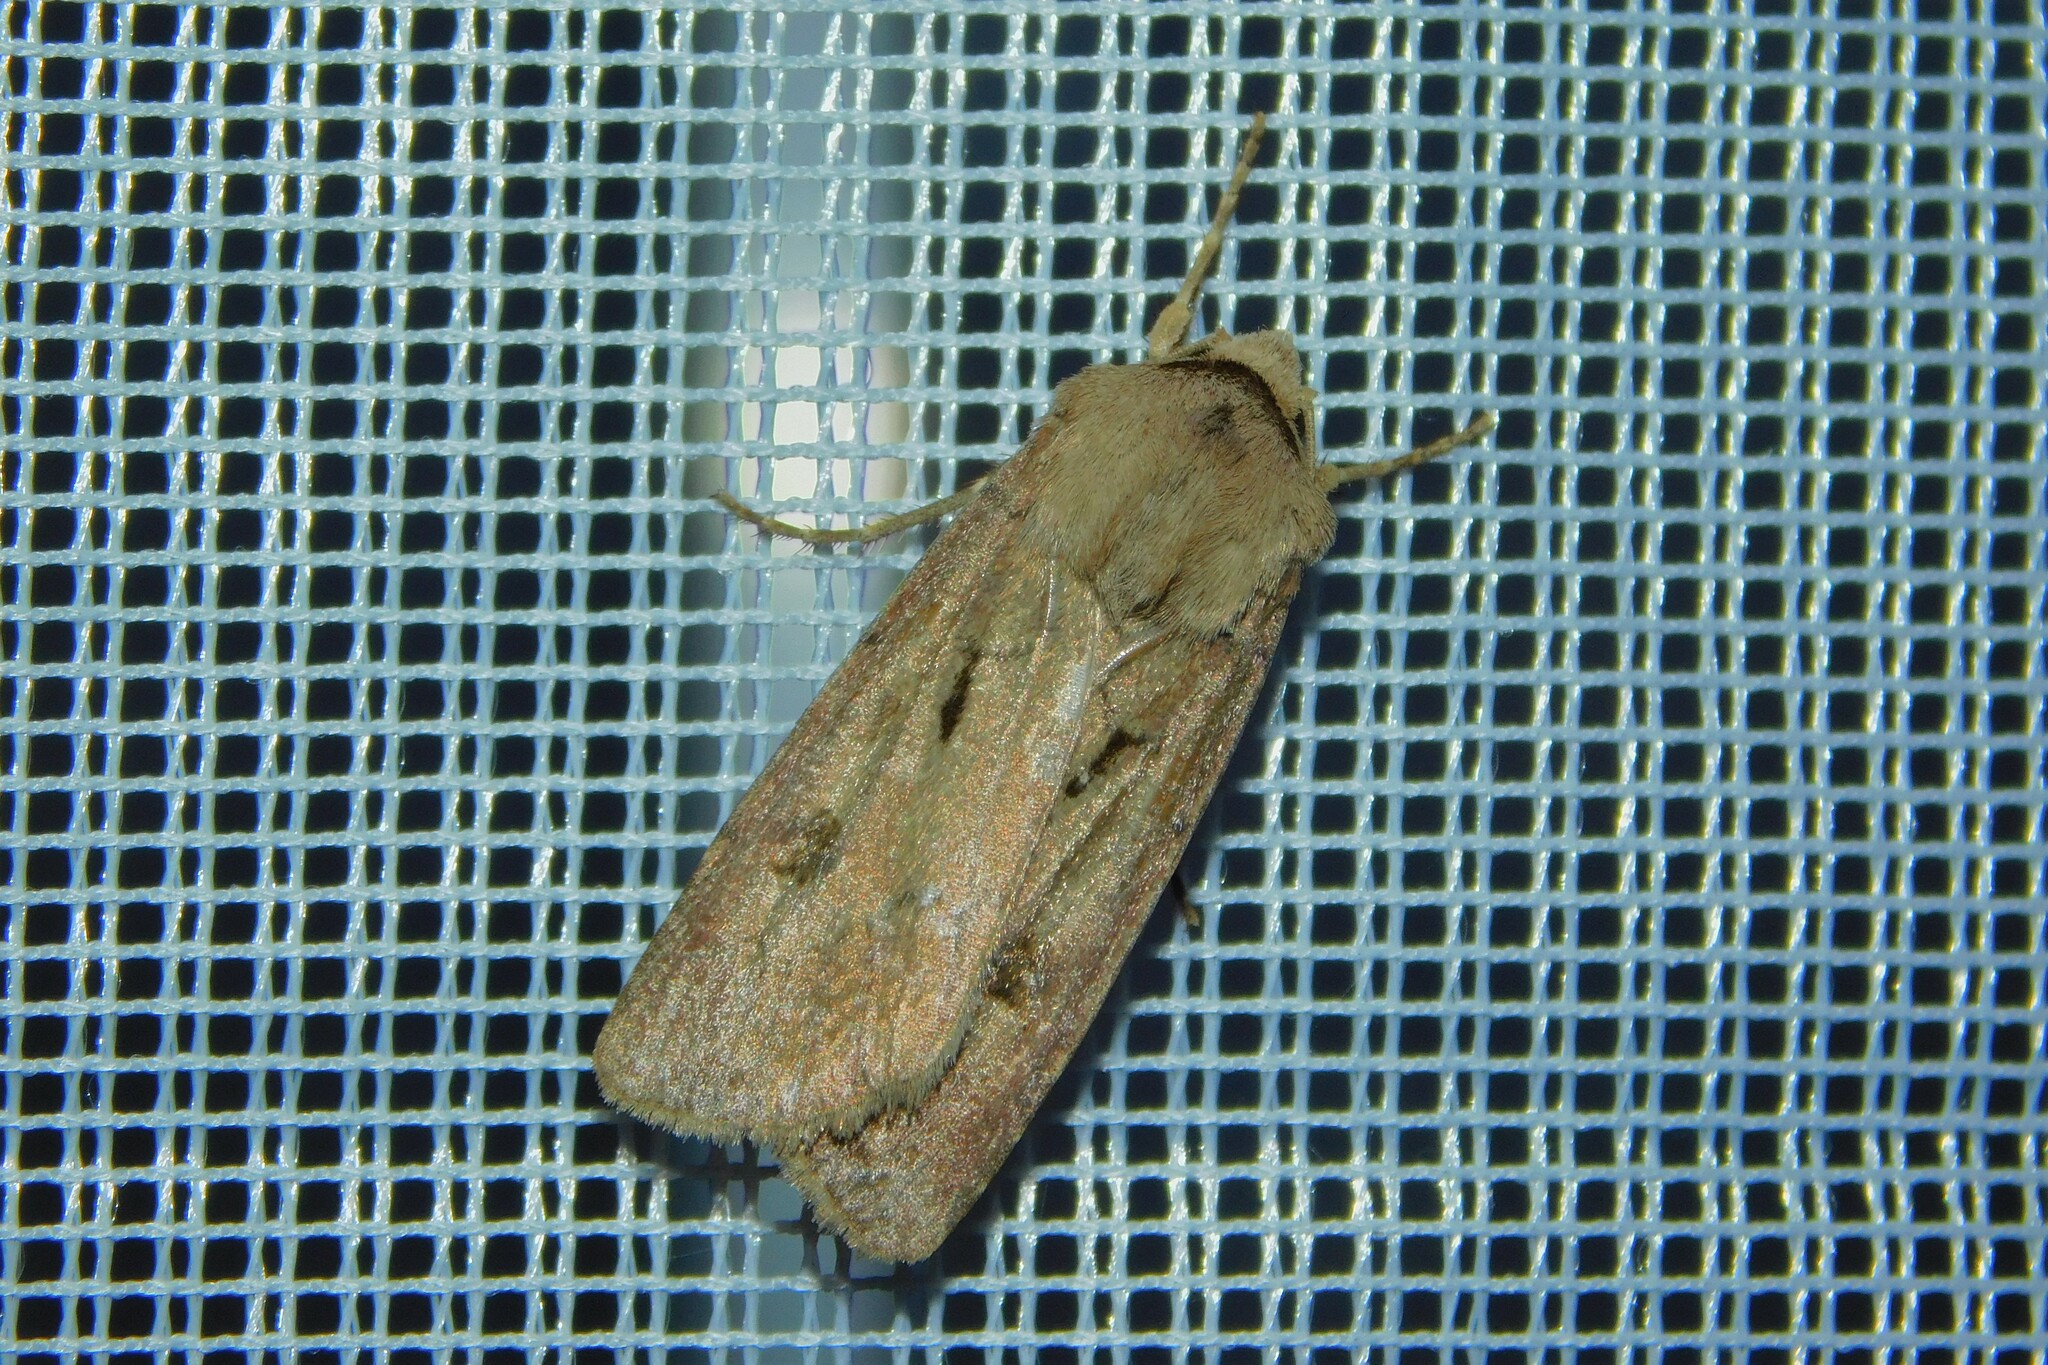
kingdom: Animalia
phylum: Arthropoda
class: Insecta
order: Lepidoptera
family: Noctuidae
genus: Agrotis
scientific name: Agrotis exclamationis
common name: Heart and dart
